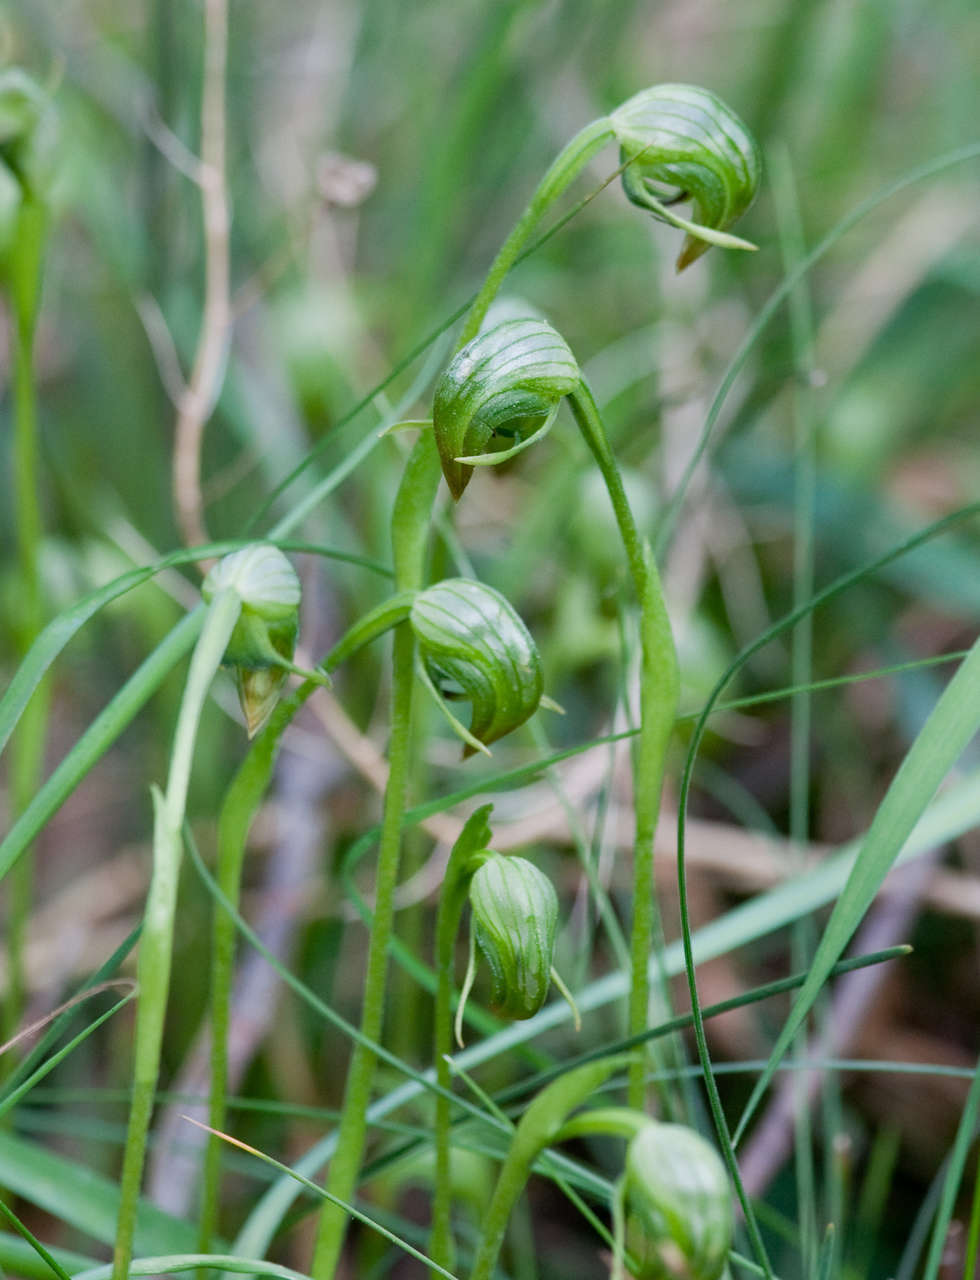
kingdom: Plantae
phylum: Tracheophyta
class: Liliopsida
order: Asparagales
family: Orchidaceae
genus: Pterostylis
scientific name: Pterostylis nutans
